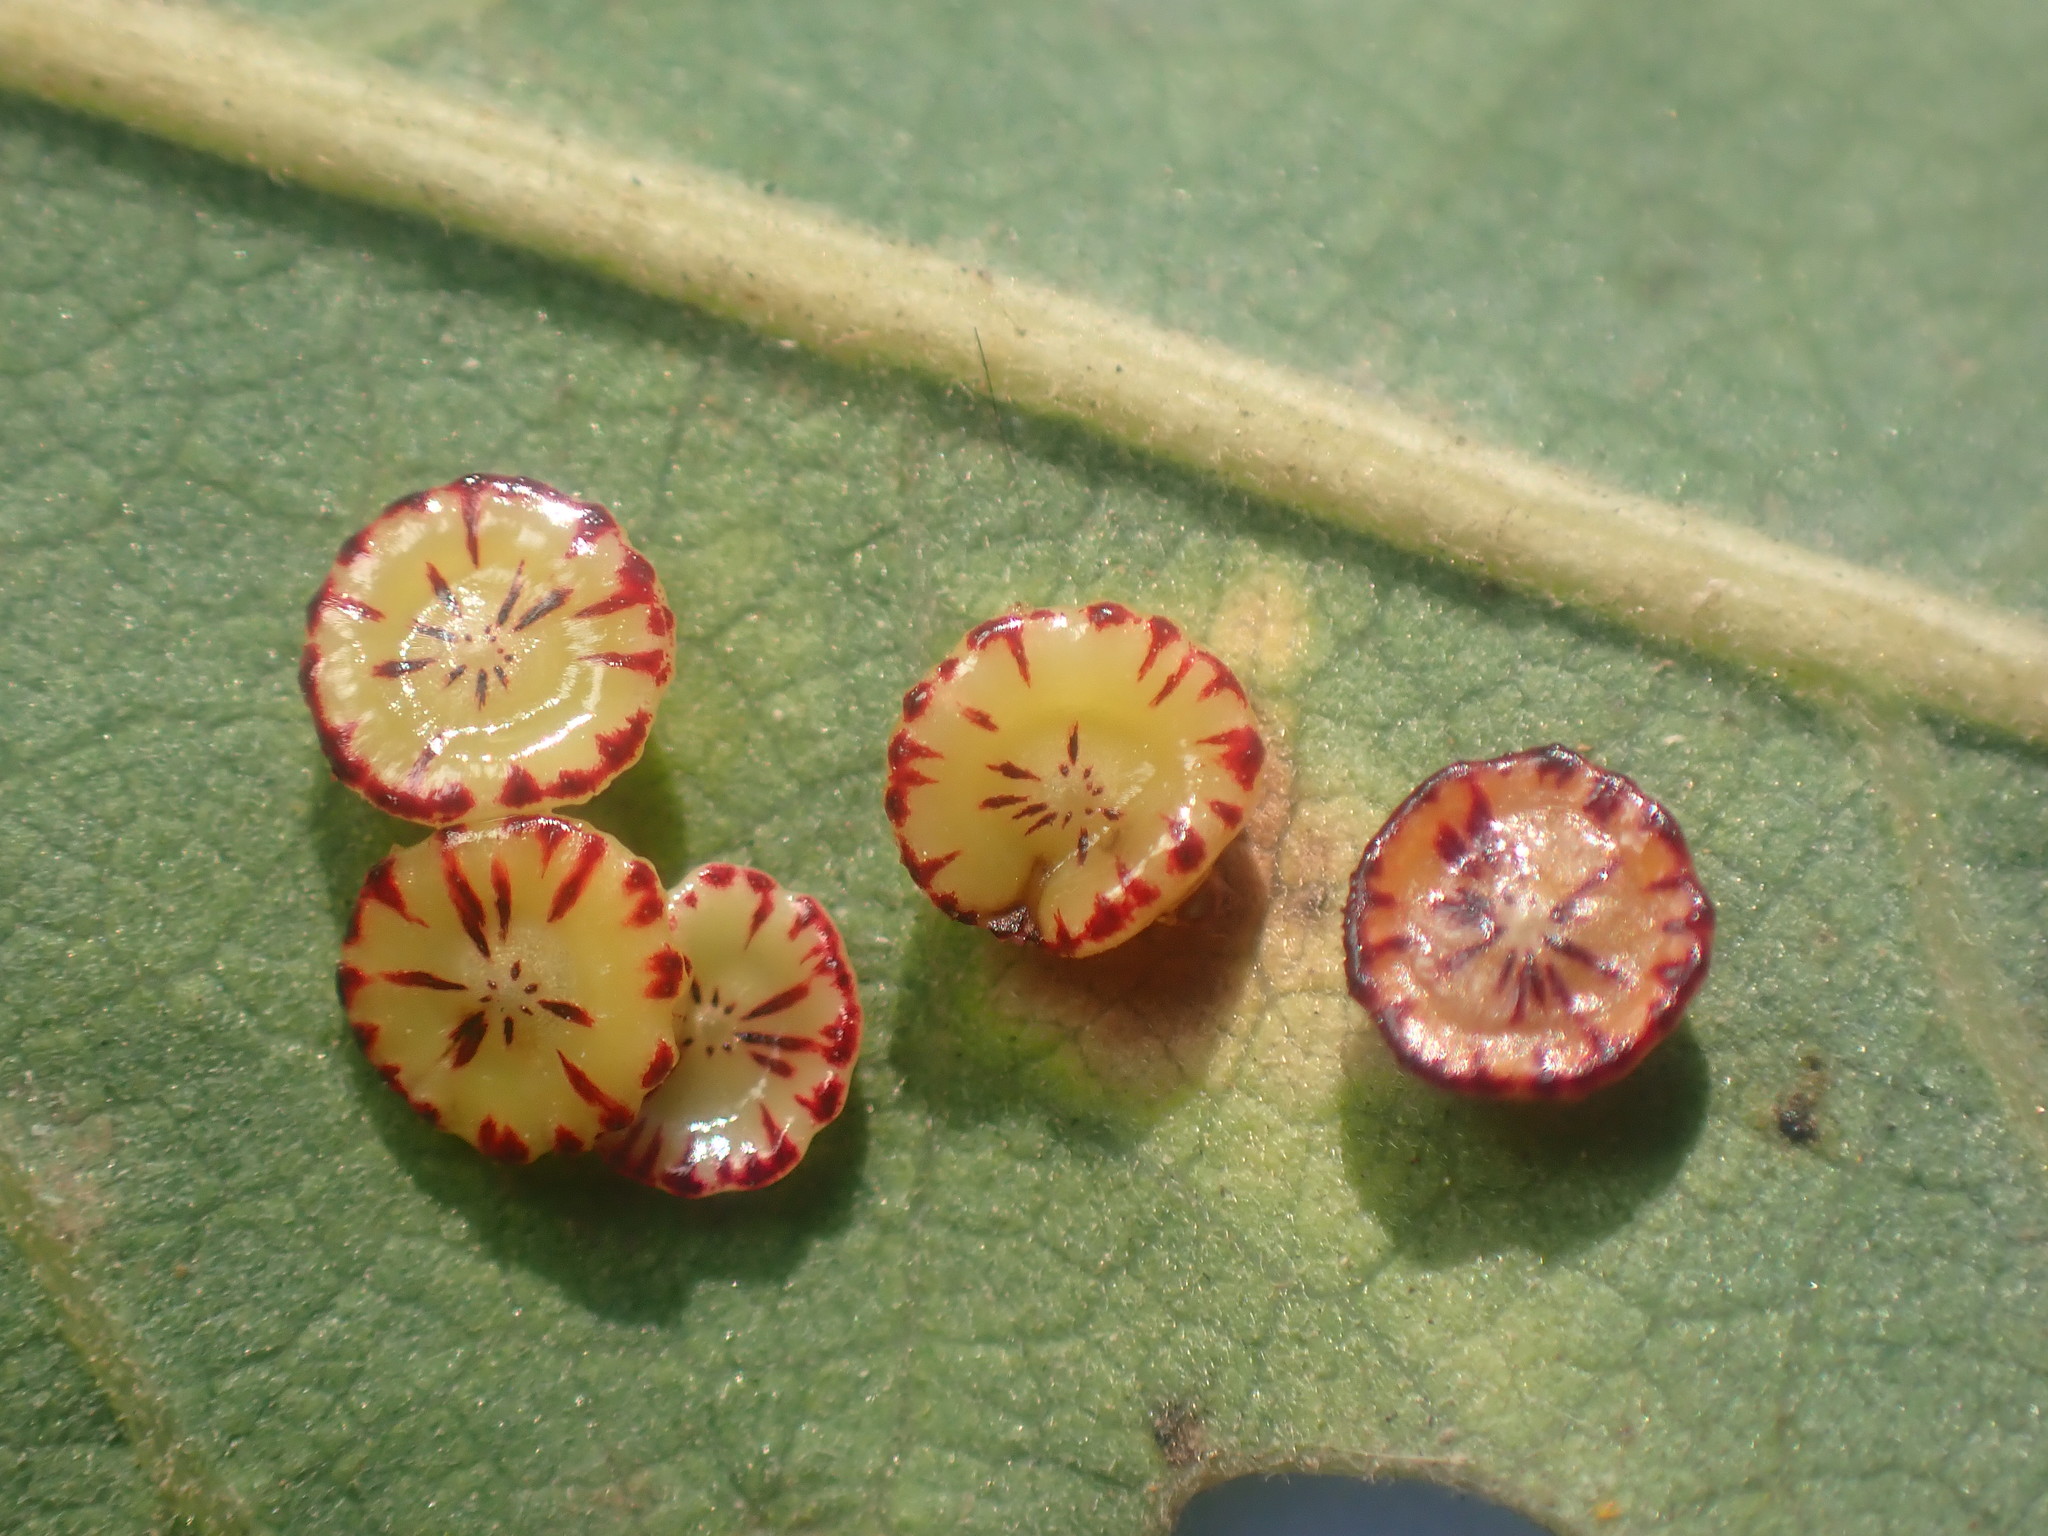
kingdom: Animalia
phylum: Arthropoda
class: Insecta
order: Hymenoptera
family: Cynipidae
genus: Andricus
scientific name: Andricus
